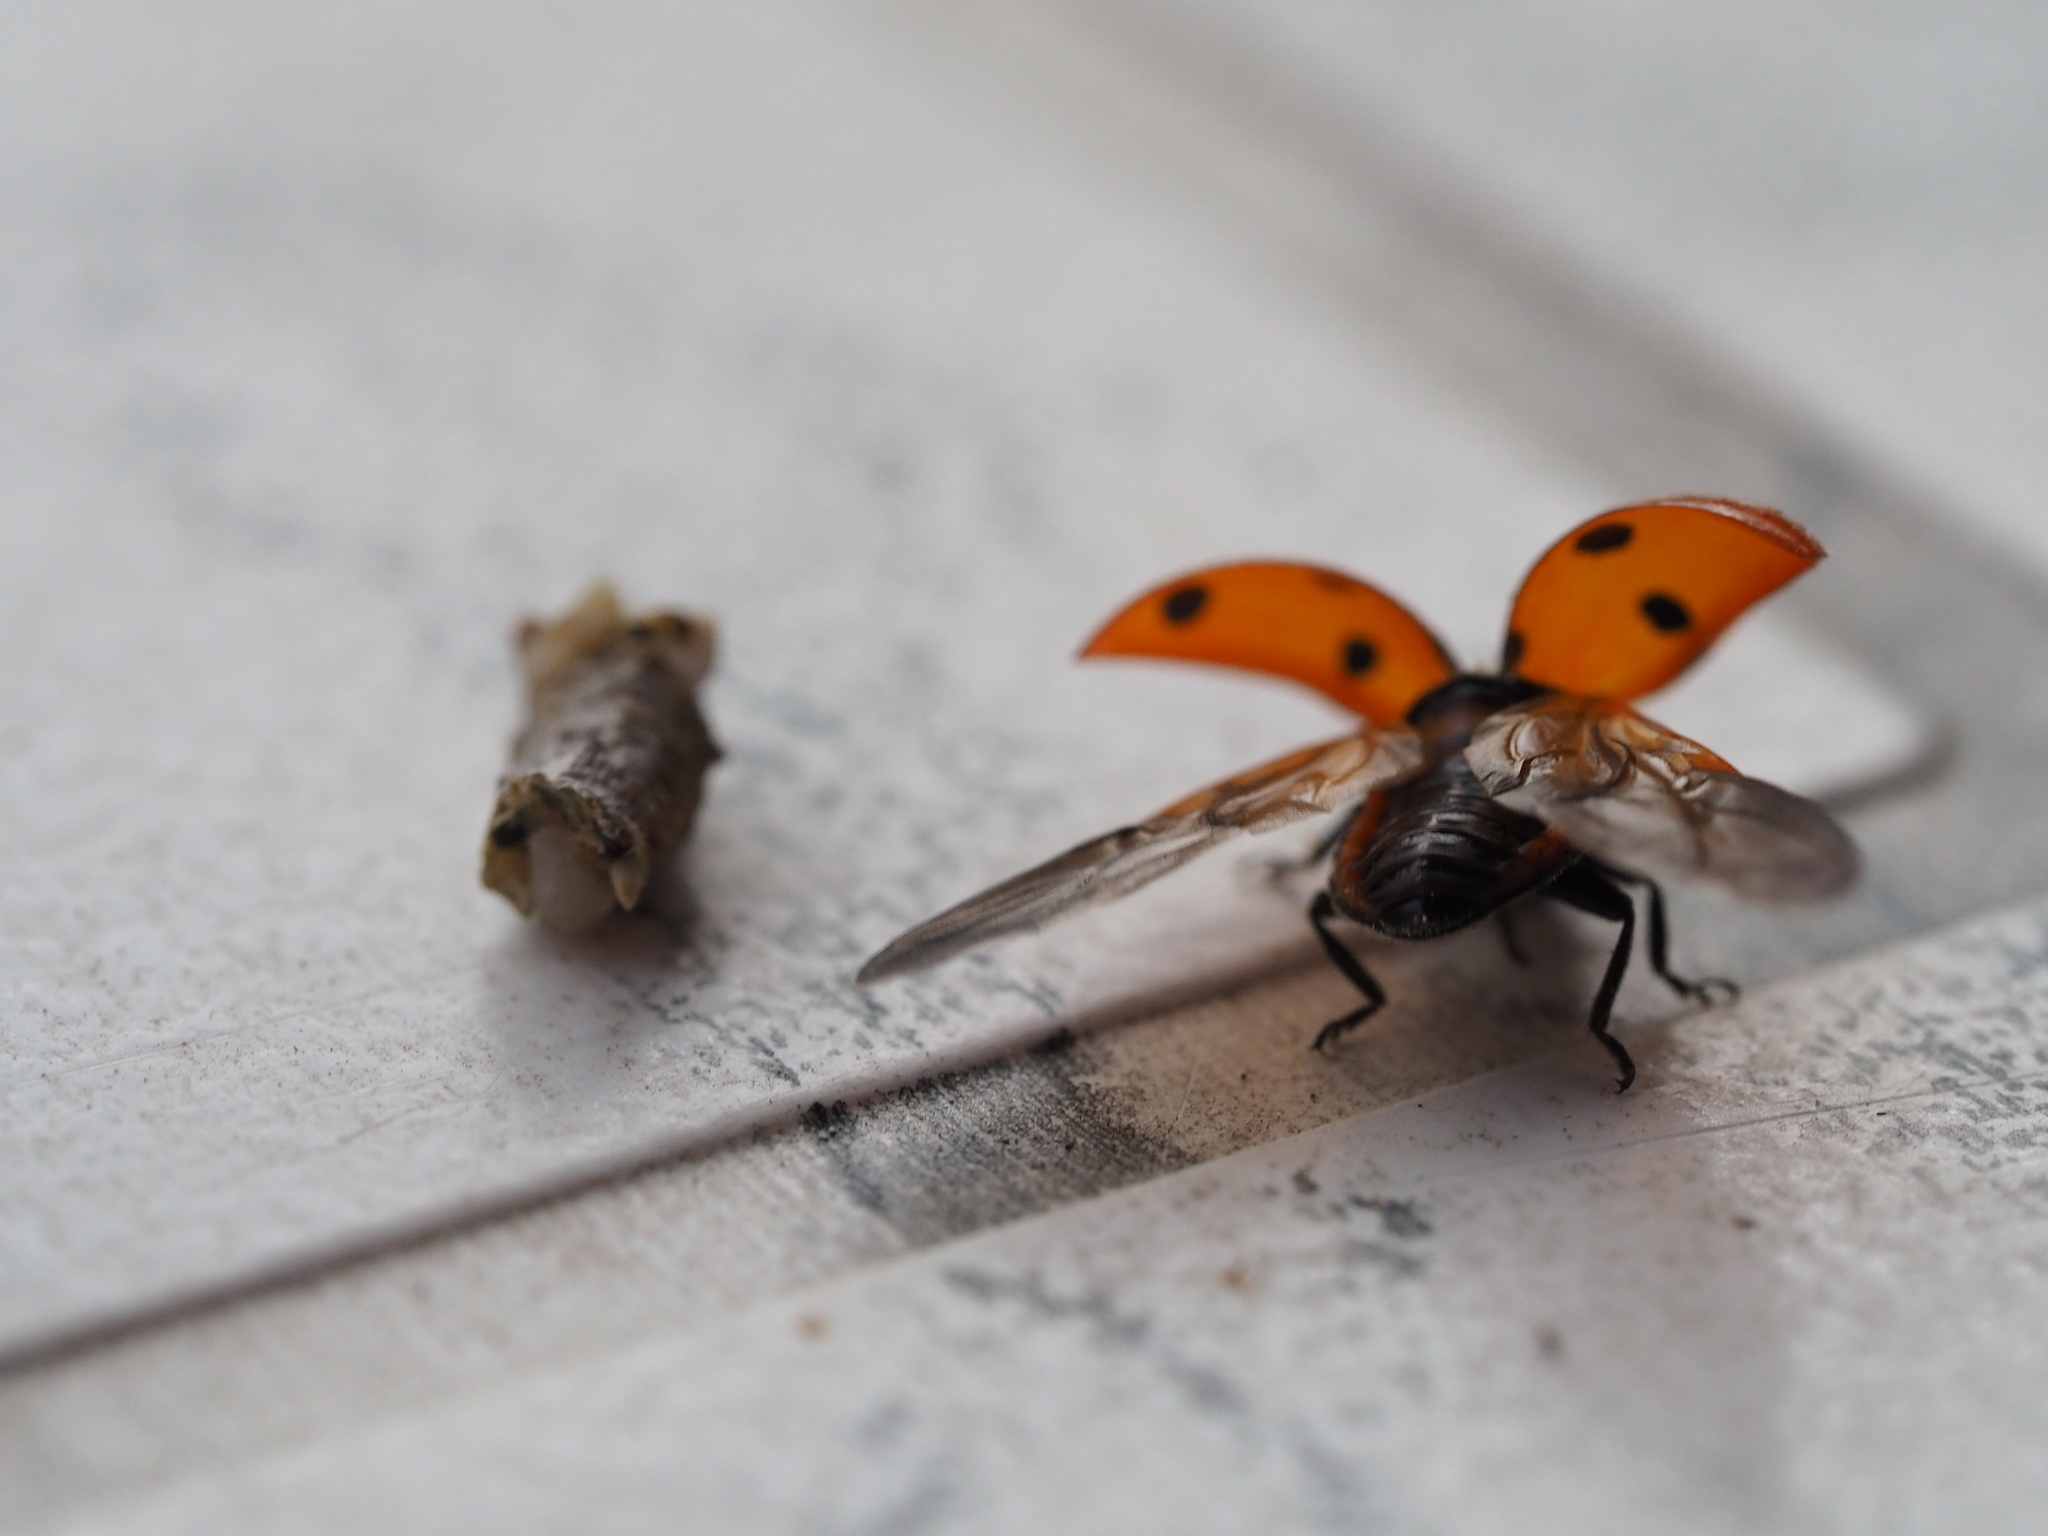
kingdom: Animalia
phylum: Arthropoda
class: Insecta
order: Coleoptera
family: Coccinellidae
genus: Coccinella
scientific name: Coccinella septempunctata
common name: Sevenspotted lady beetle
